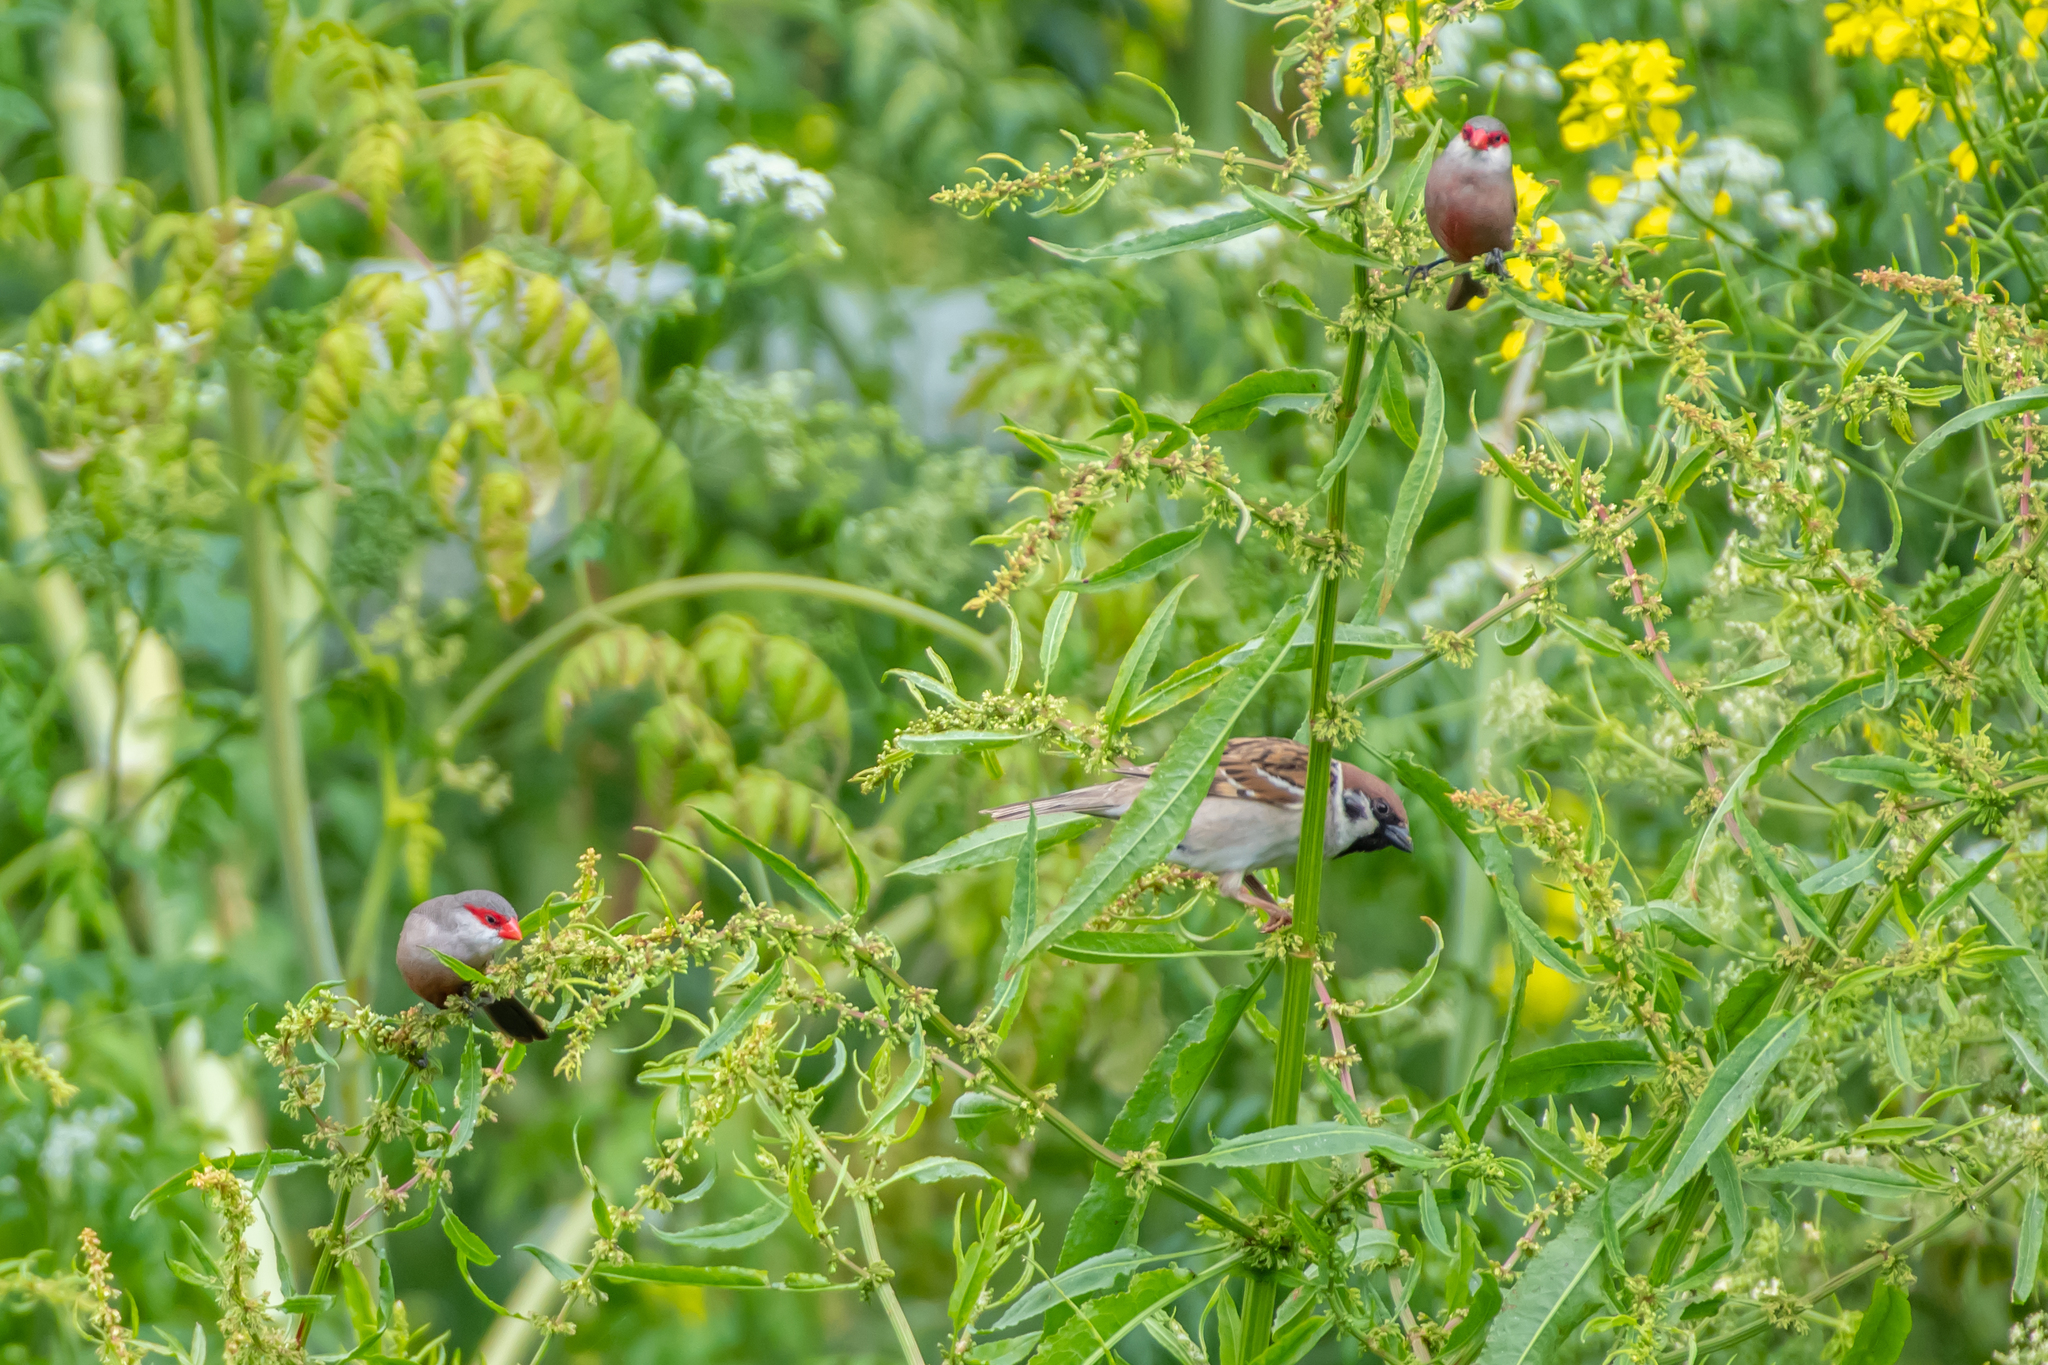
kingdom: Animalia
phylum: Chordata
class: Aves
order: Passeriformes
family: Estrildidae
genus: Estrilda
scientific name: Estrilda astrild
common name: Common waxbill
